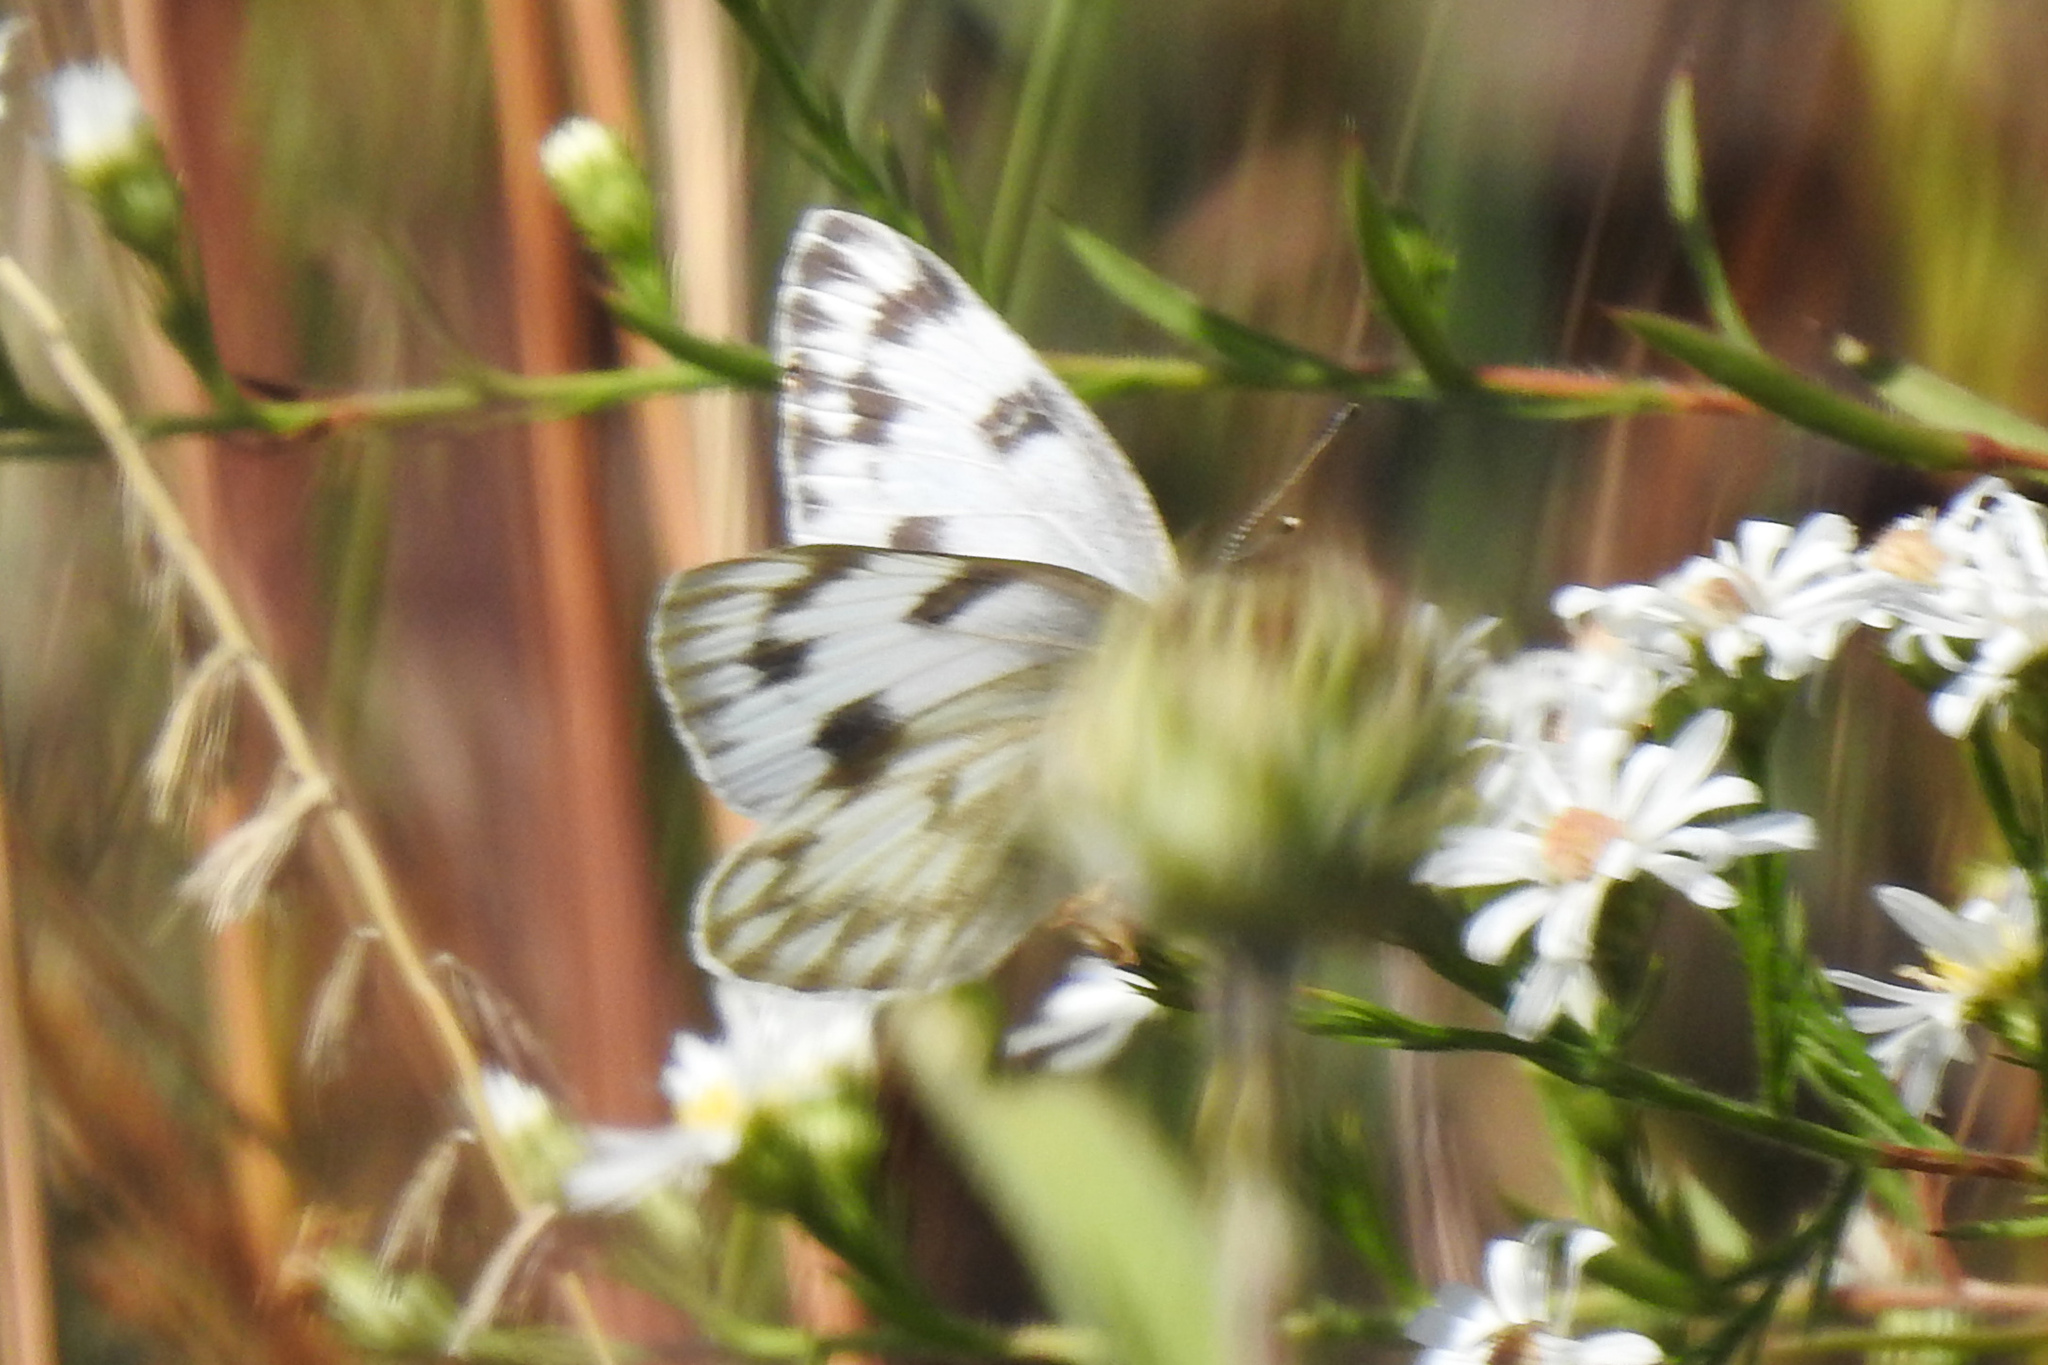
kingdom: Animalia
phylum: Arthropoda
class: Insecta
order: Lepidoptera
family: Pieridae
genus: Pontia
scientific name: Pontia protodice
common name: Checkered white
